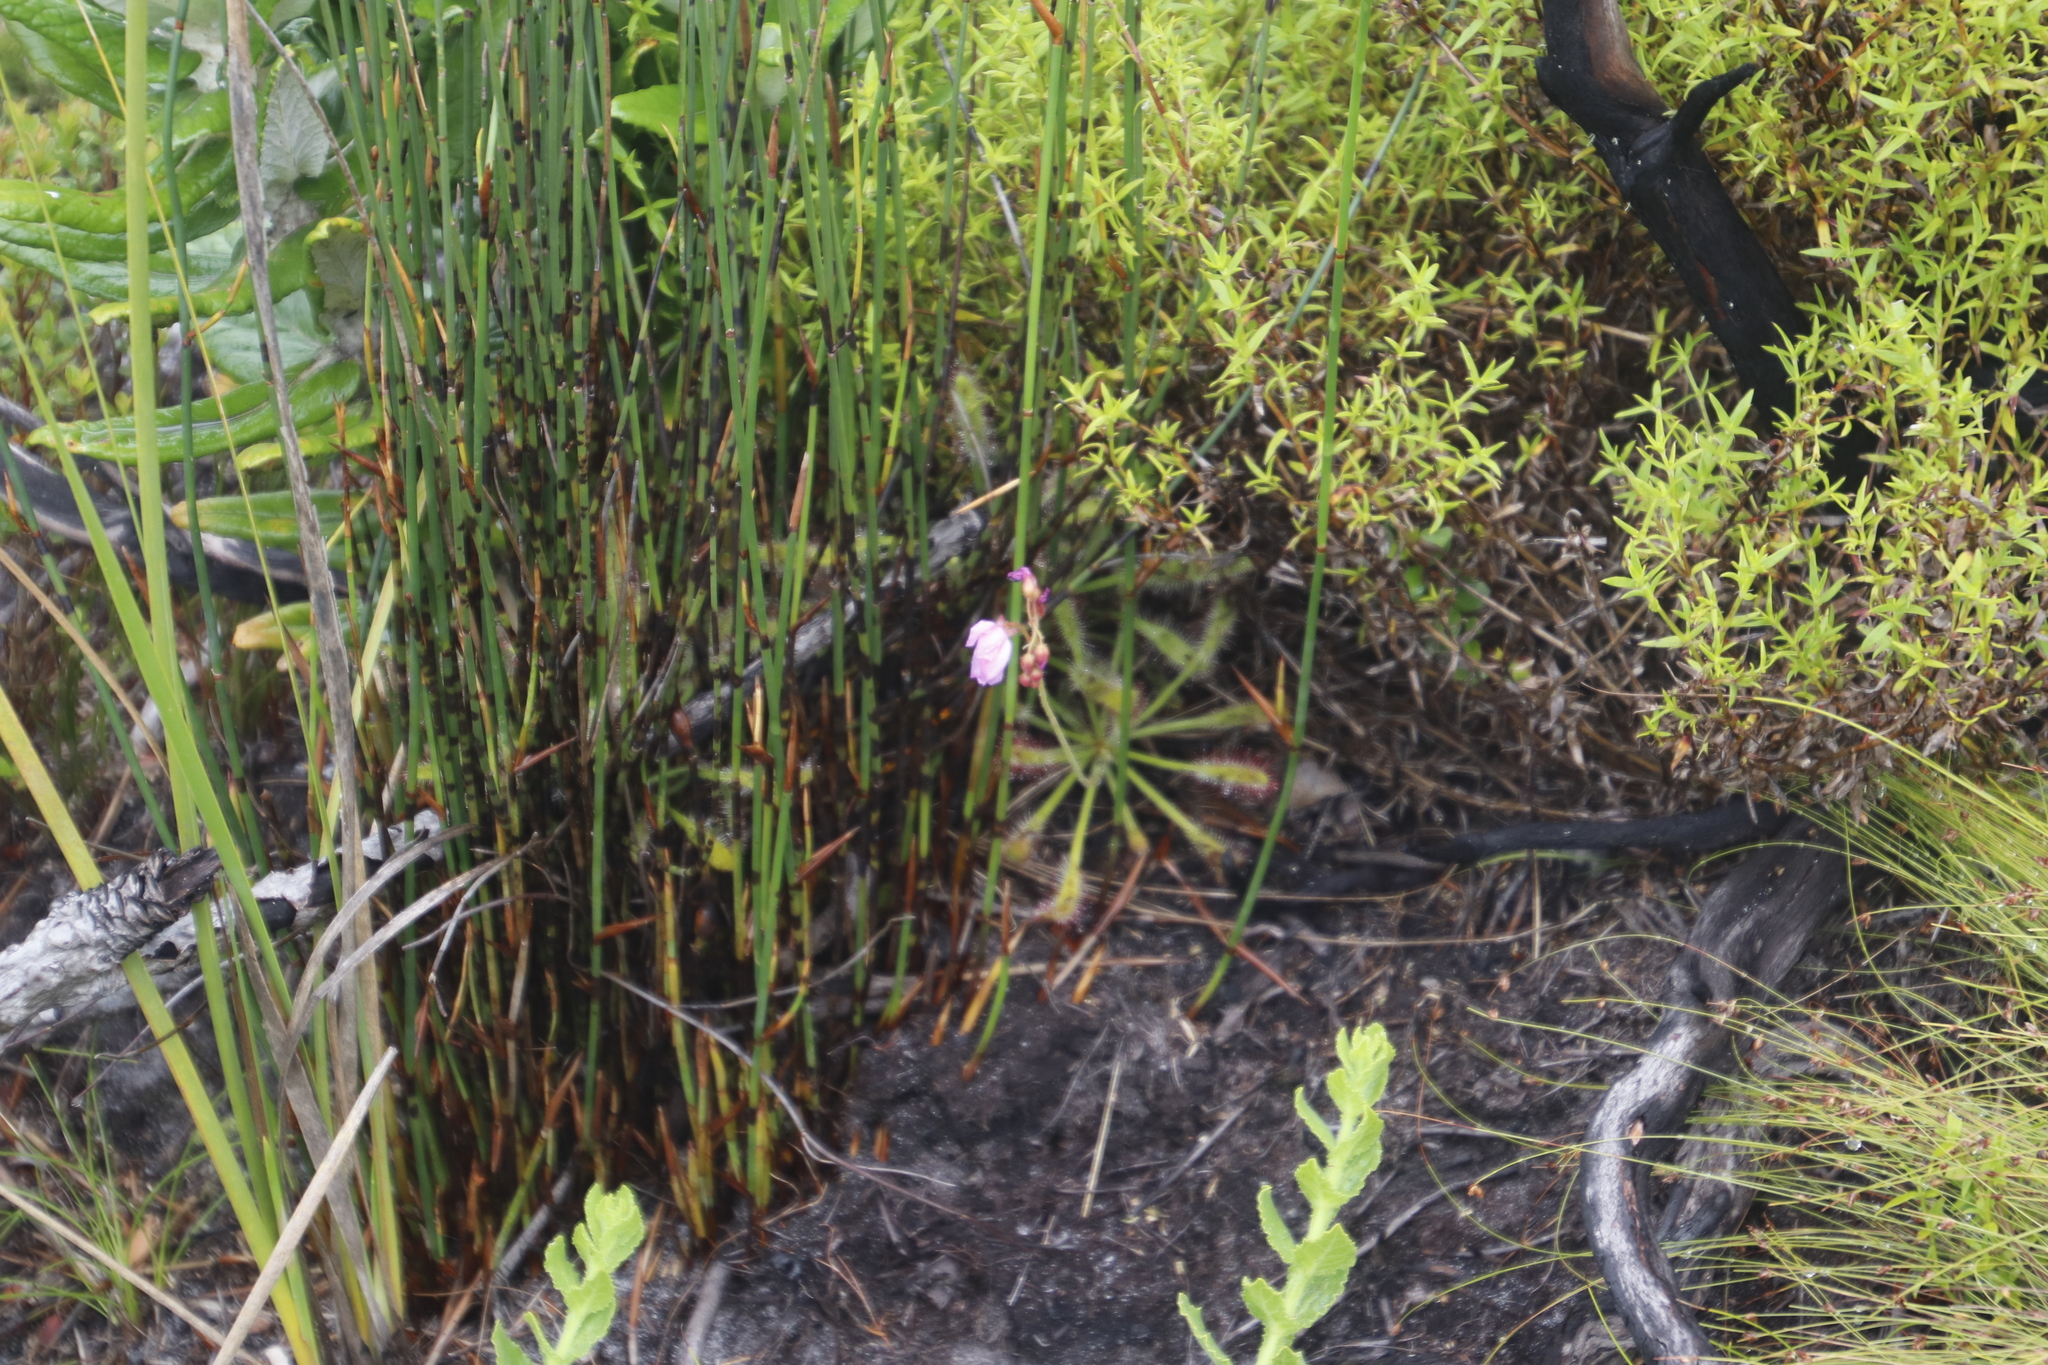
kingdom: Plantae
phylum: Tracheophyta
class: Magnoliopsida
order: Caryophyllales
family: Droseraceae
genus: Drosera
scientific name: Drosera capensis
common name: Cape sundew
